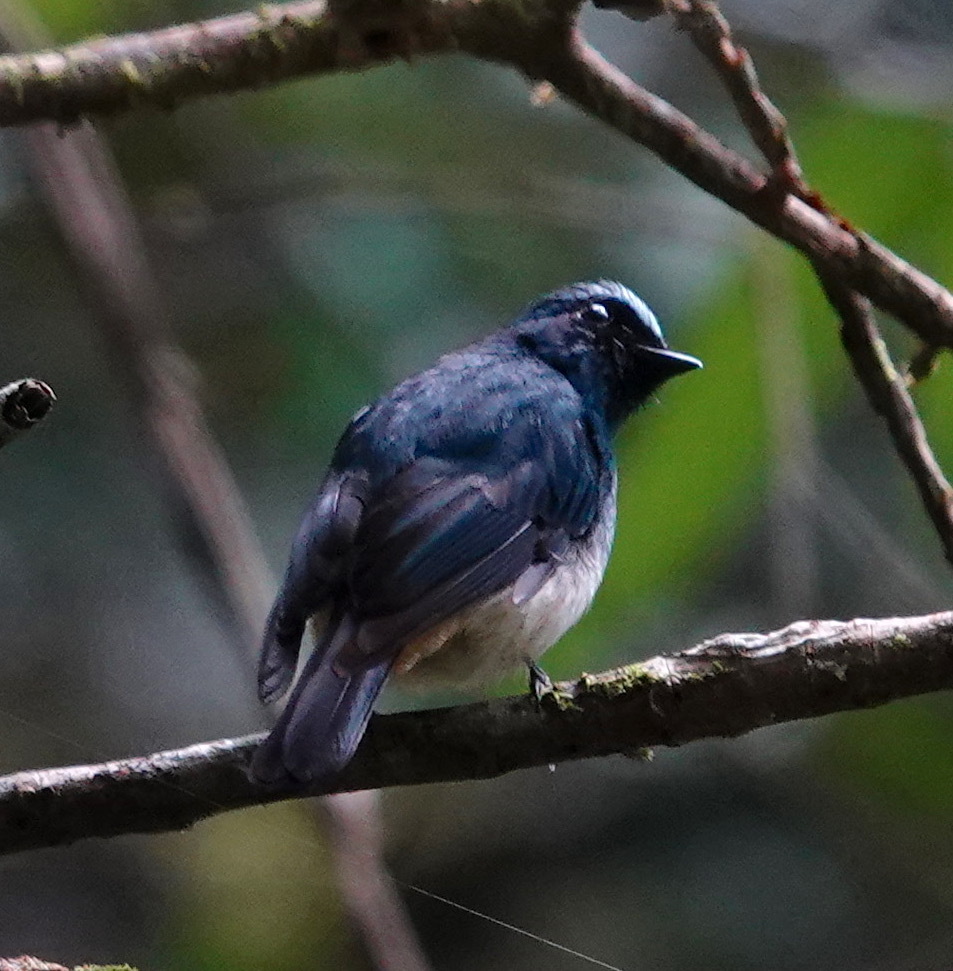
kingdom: Animalia
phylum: Chordata
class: Aves
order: Passeriformes
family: Muscicapidae
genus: Eumyias
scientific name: Eumyias indigo
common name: Indigo flycatcher
